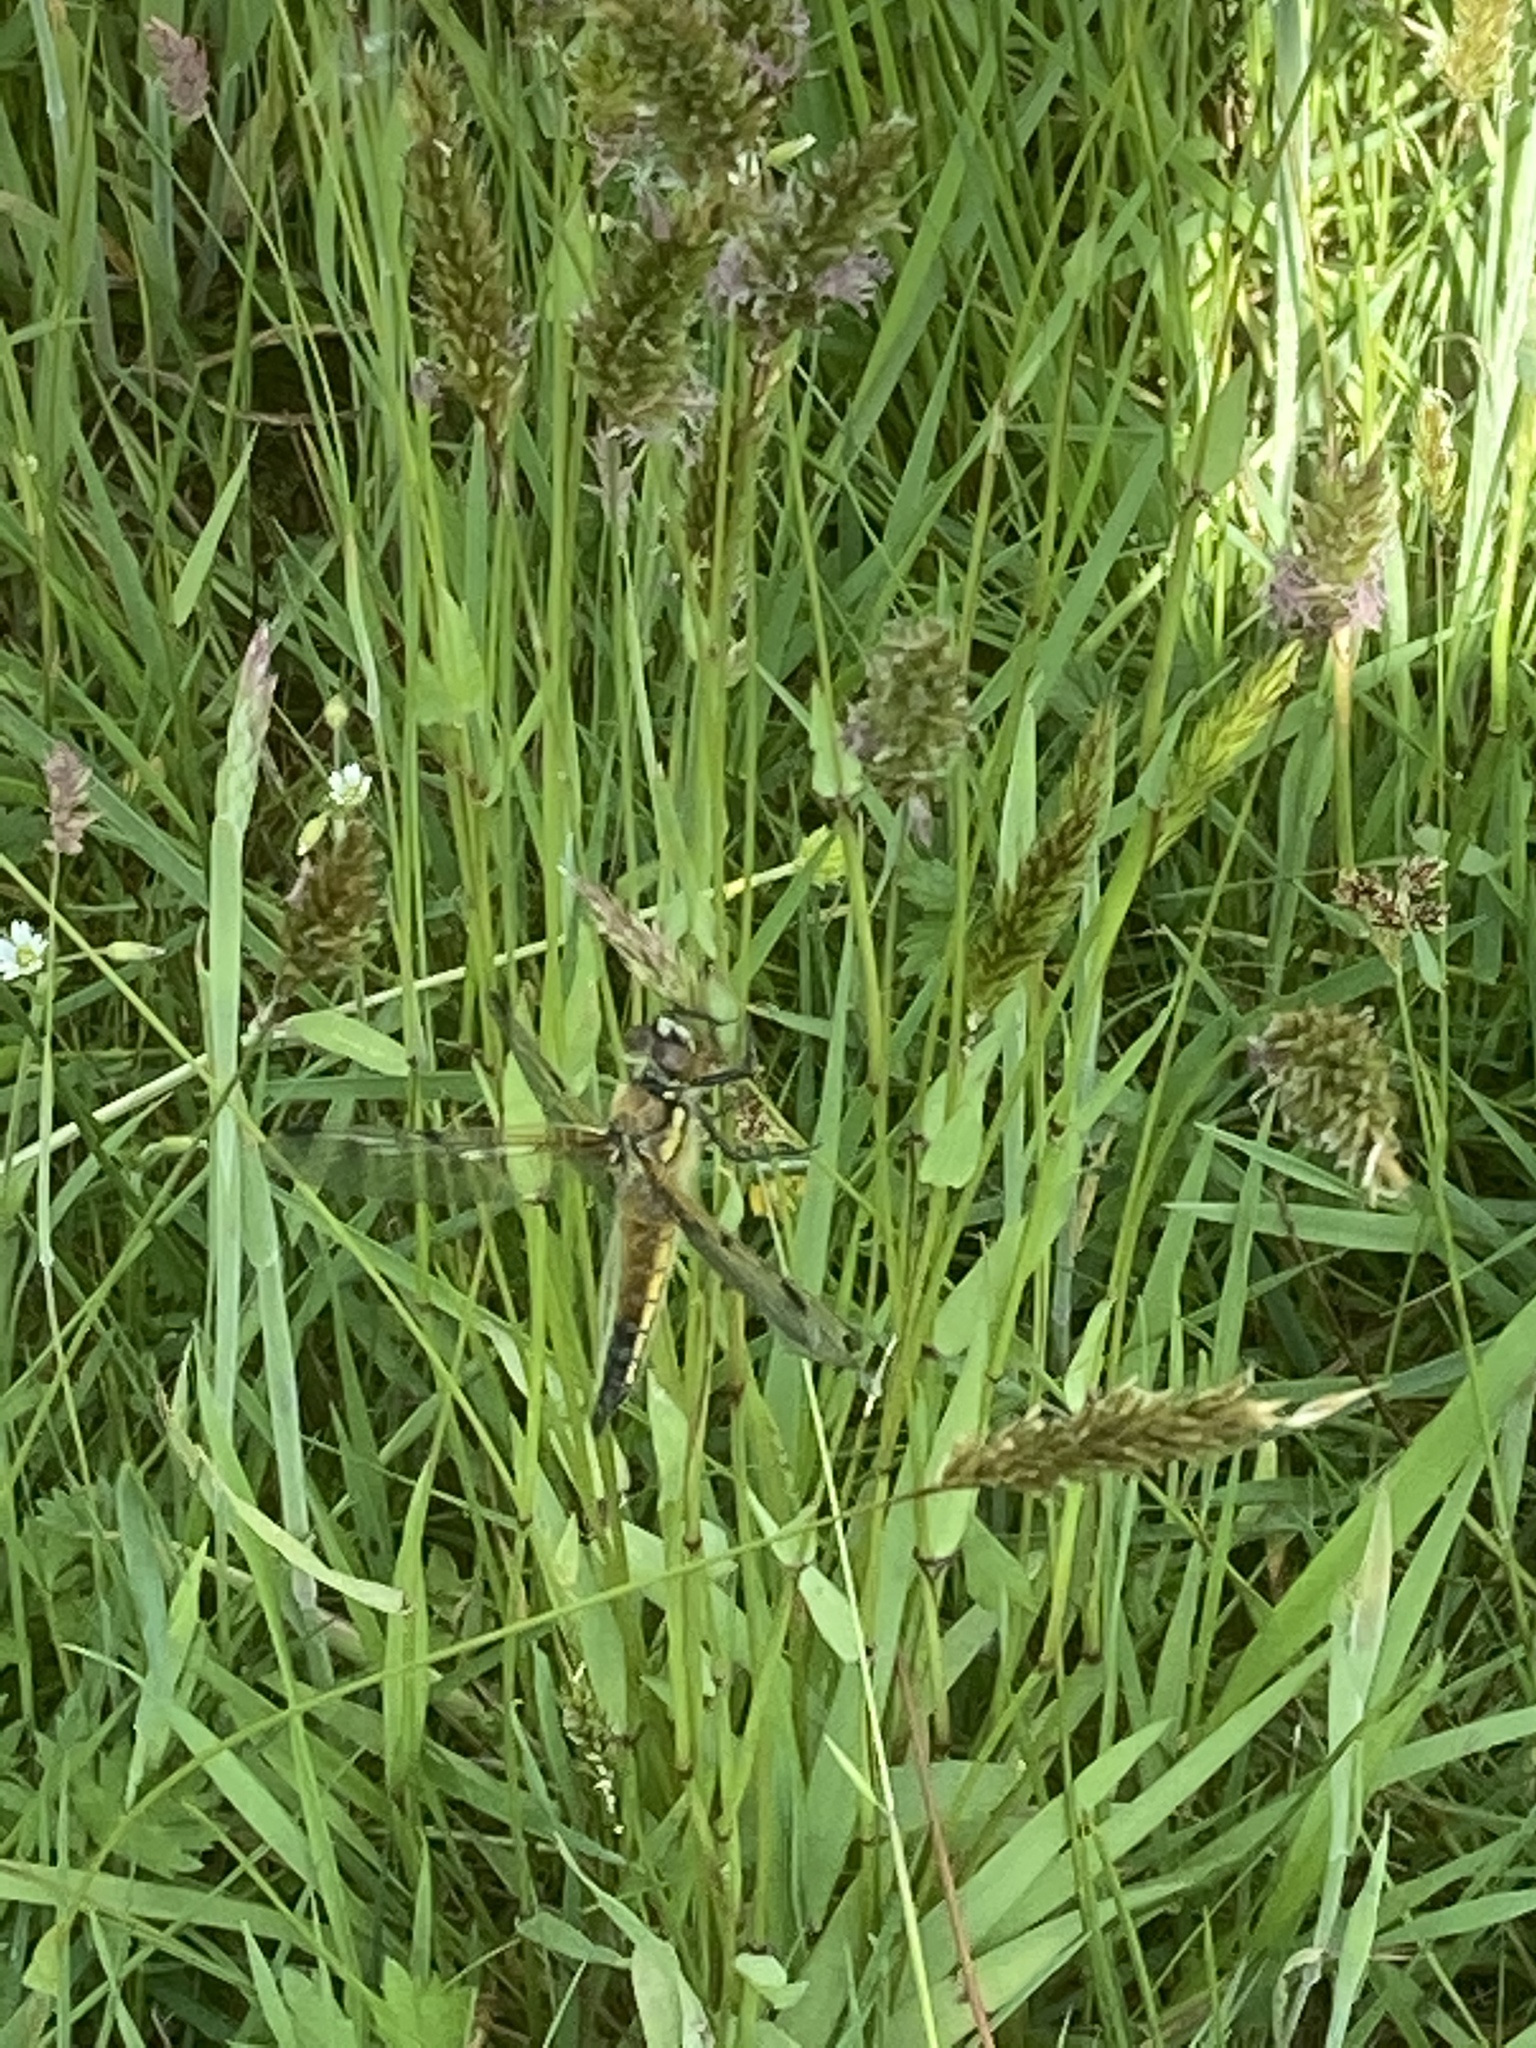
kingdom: Plantae
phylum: Tracheophyta
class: Liliopsida
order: Poales
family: Poaceae
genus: Anthoxanthum
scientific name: Anthoxanthum odoratum
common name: Sweet vernalgrass
